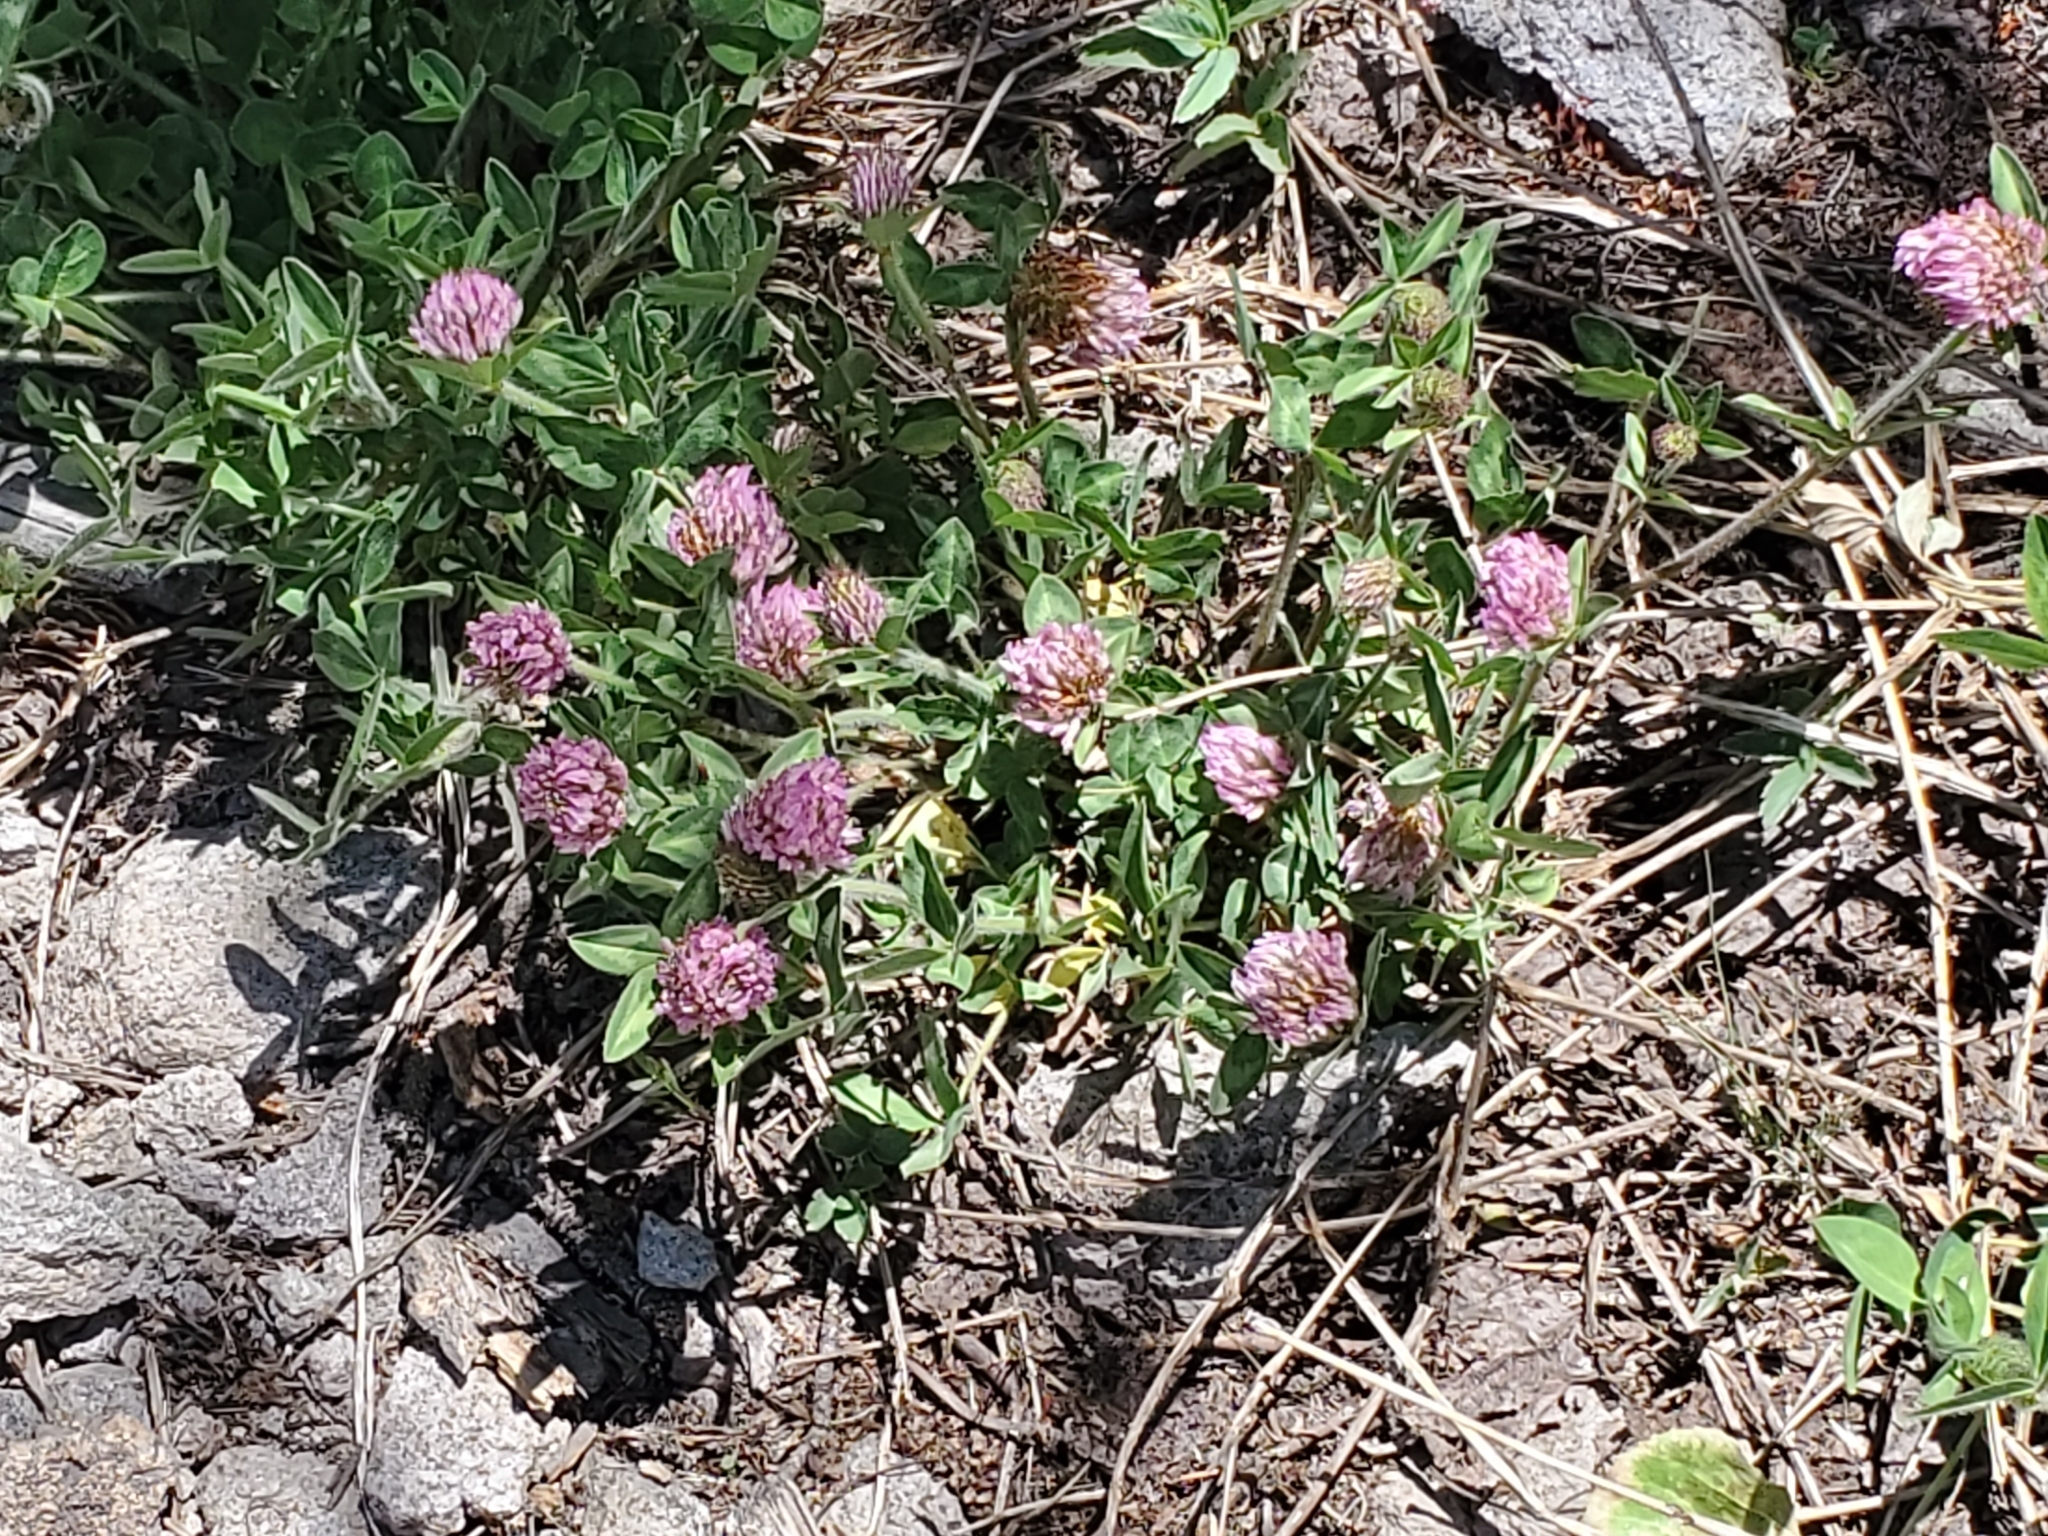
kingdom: Plantae
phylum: Tracheophyta
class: Magnoliopsida
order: Fabales
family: Fabaceae
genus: Trifolium
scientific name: Trifolium pratense
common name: Red clover
